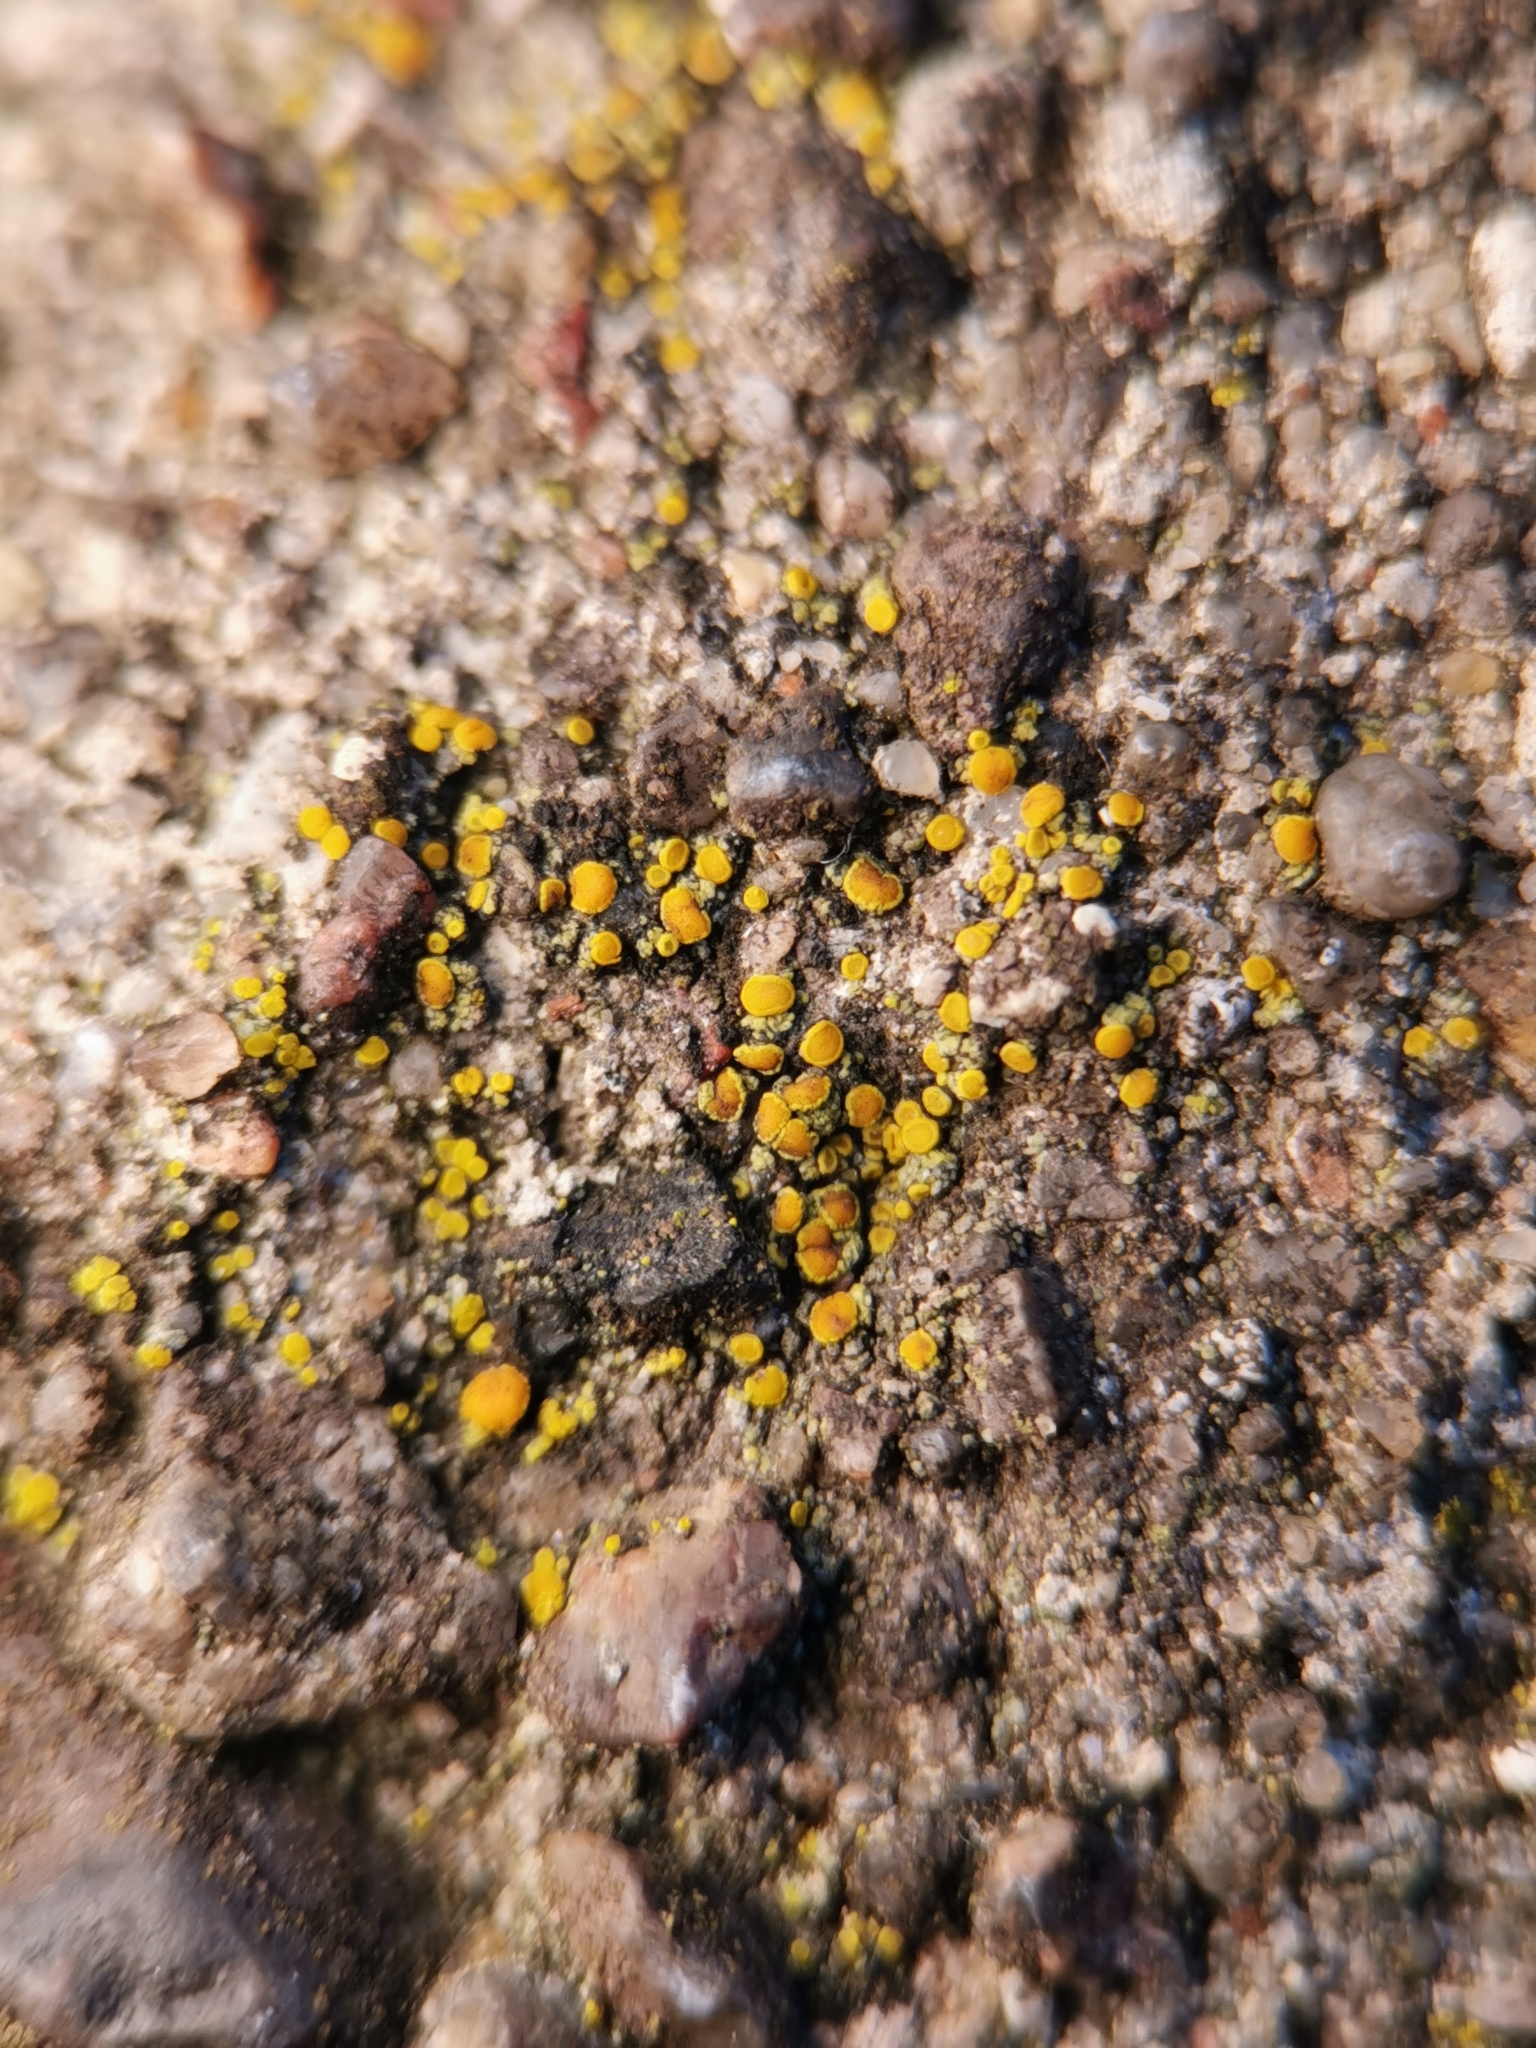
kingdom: Fungi
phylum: Ascomycota
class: Candelariomycetes
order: Candelariales
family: Candelariaceae
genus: Candelariella
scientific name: Candelariella aurella
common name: Hidden goldspeck lichen
